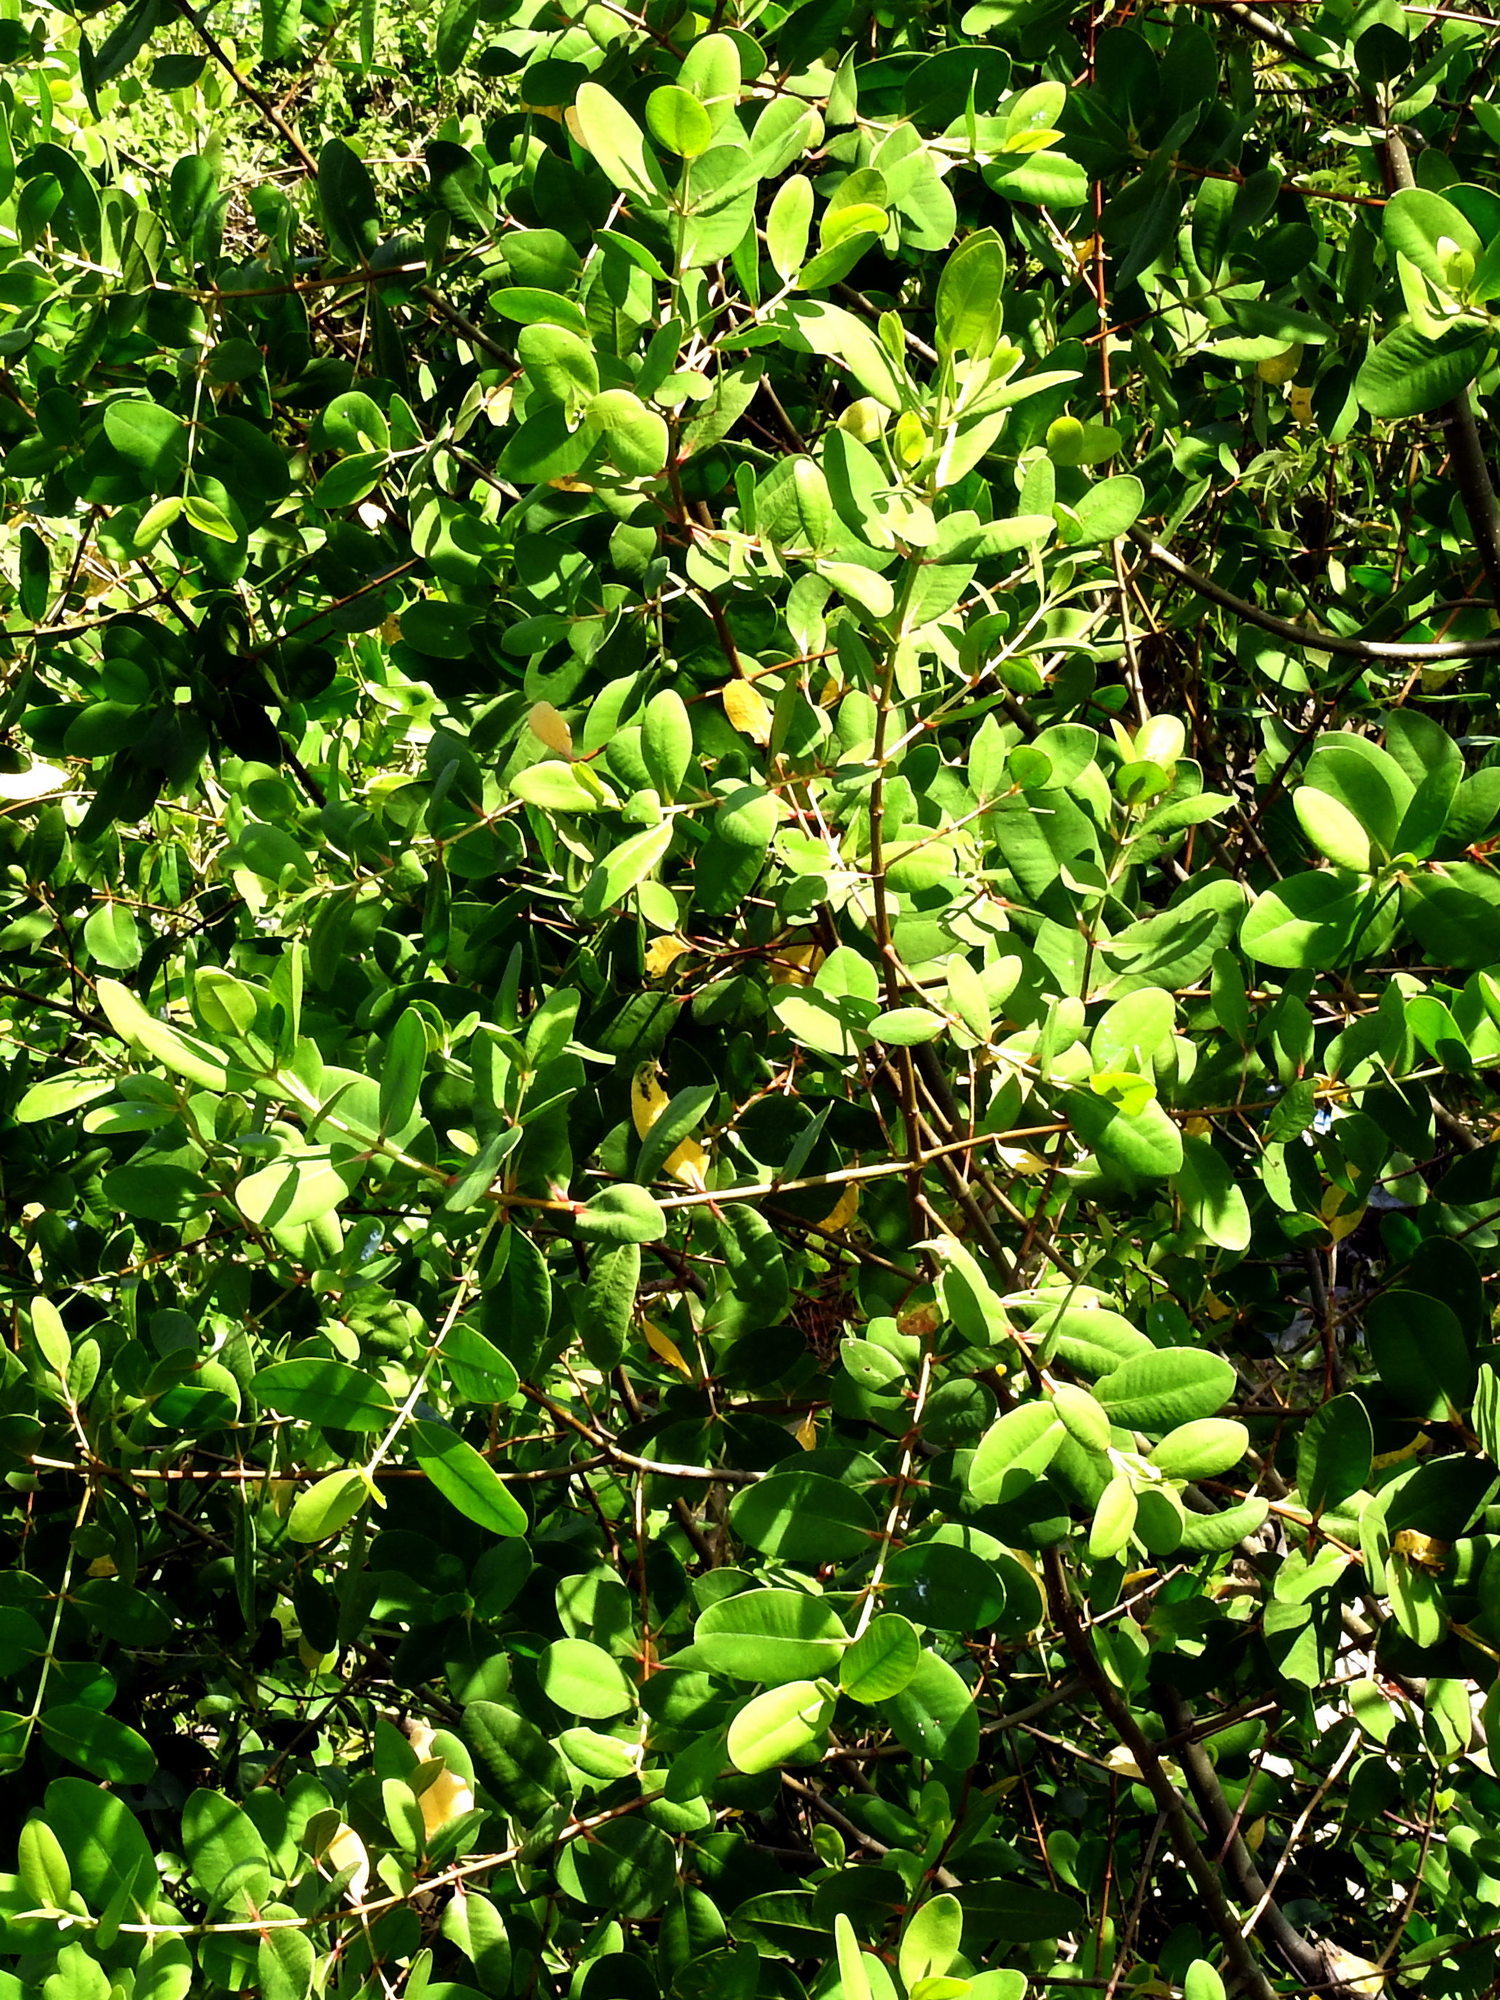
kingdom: Plantae
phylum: Tracheophyta
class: Magnoliopsida
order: Myrtales
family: Lythraceae
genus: Sonneratia
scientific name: Sonneratia caseolaris
